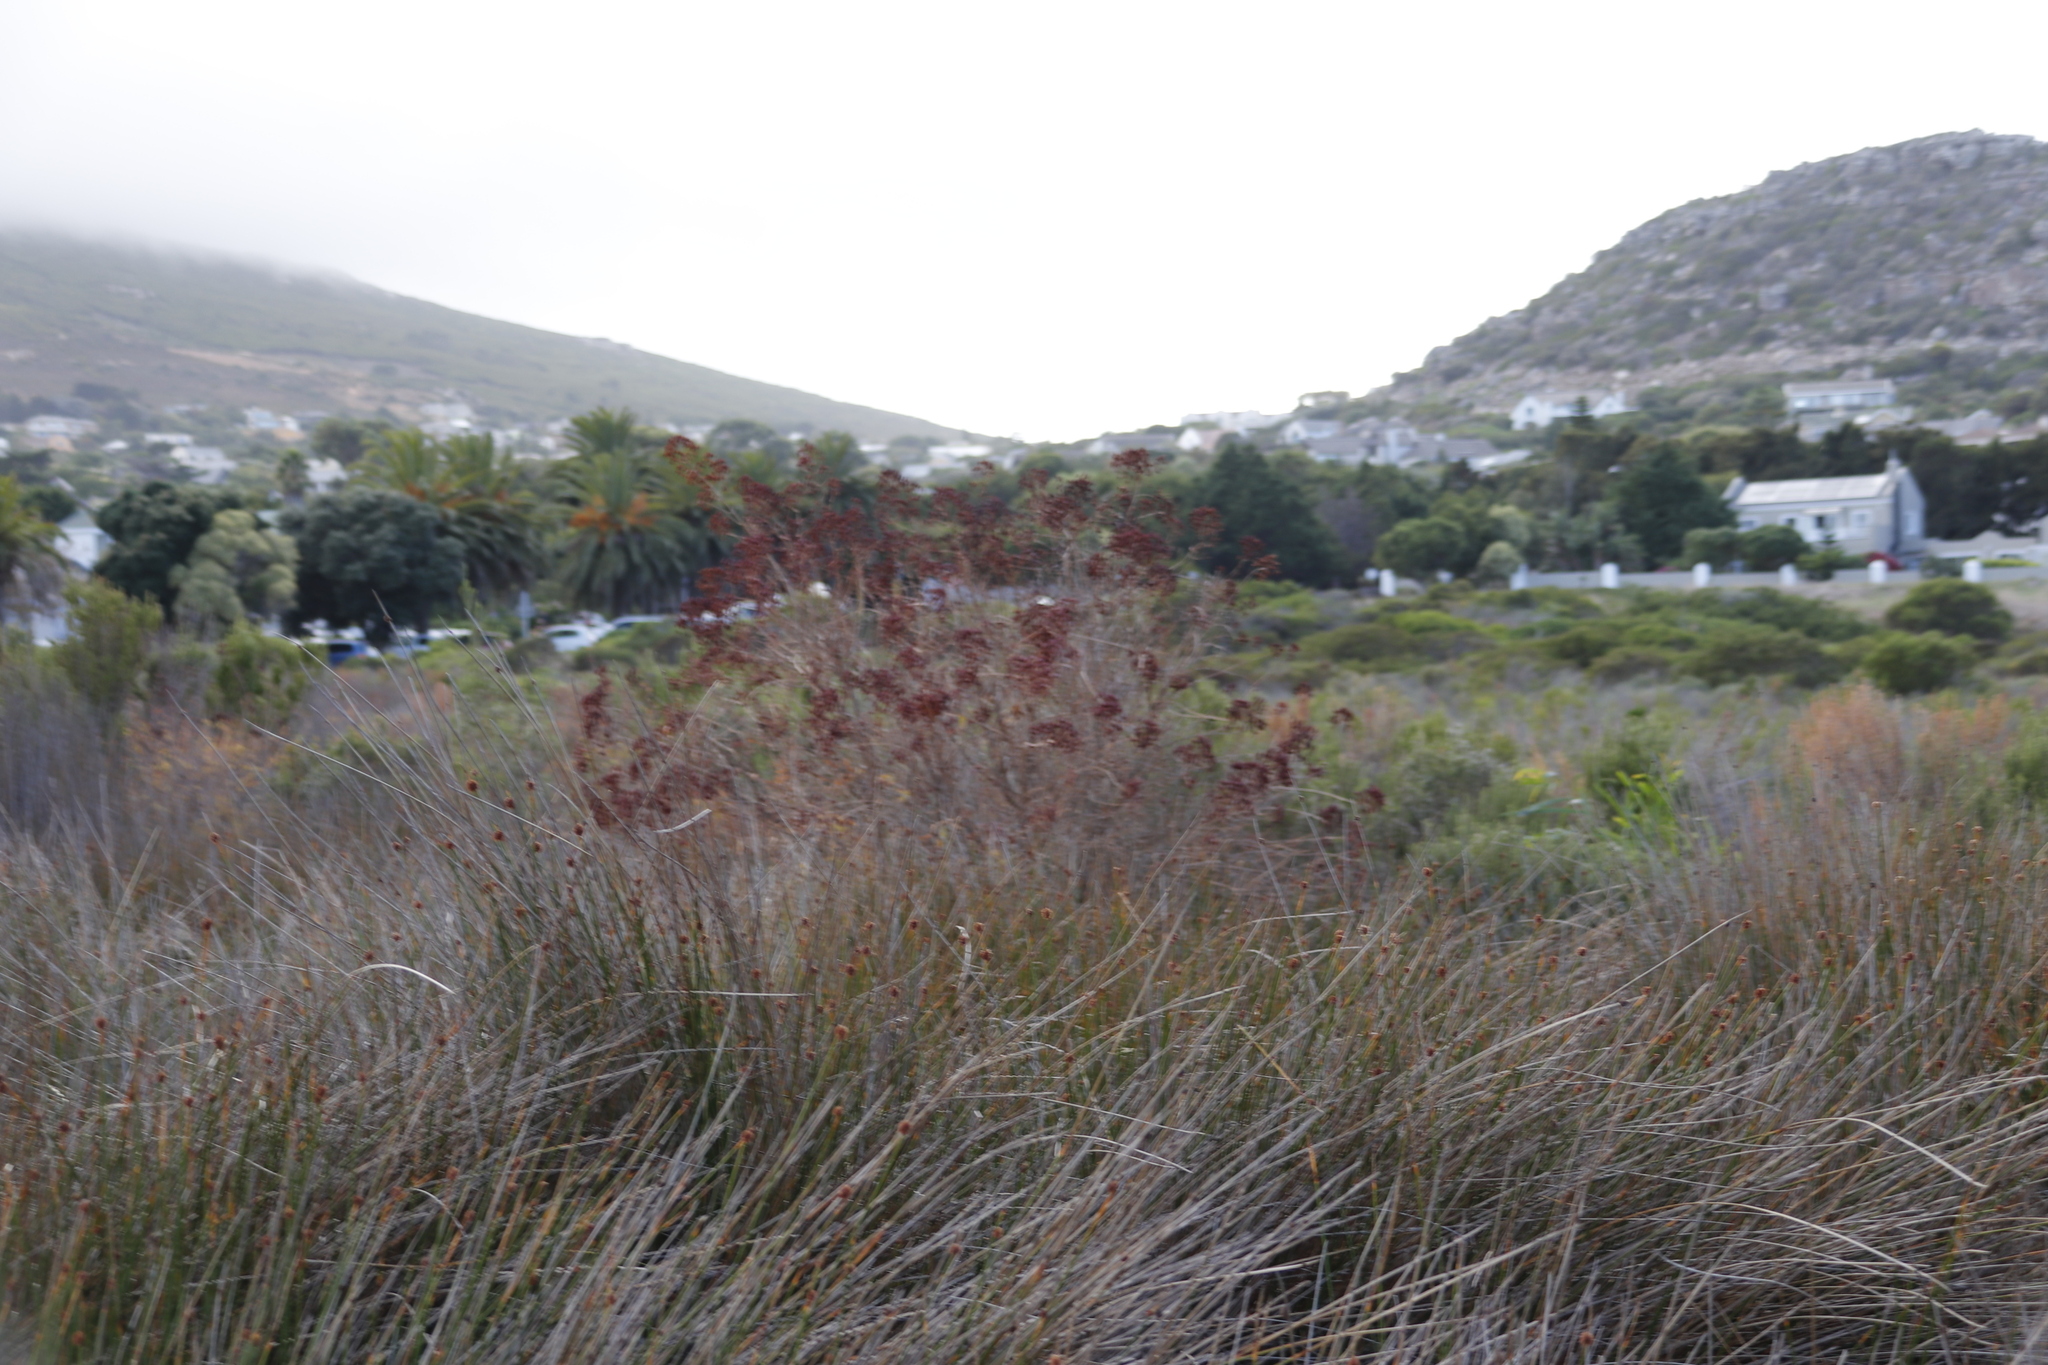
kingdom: Plantae
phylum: Tracheophyta
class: Liliopsida
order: Poales
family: Cyperaceae
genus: Ficinia
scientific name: Ficinia nodosa
